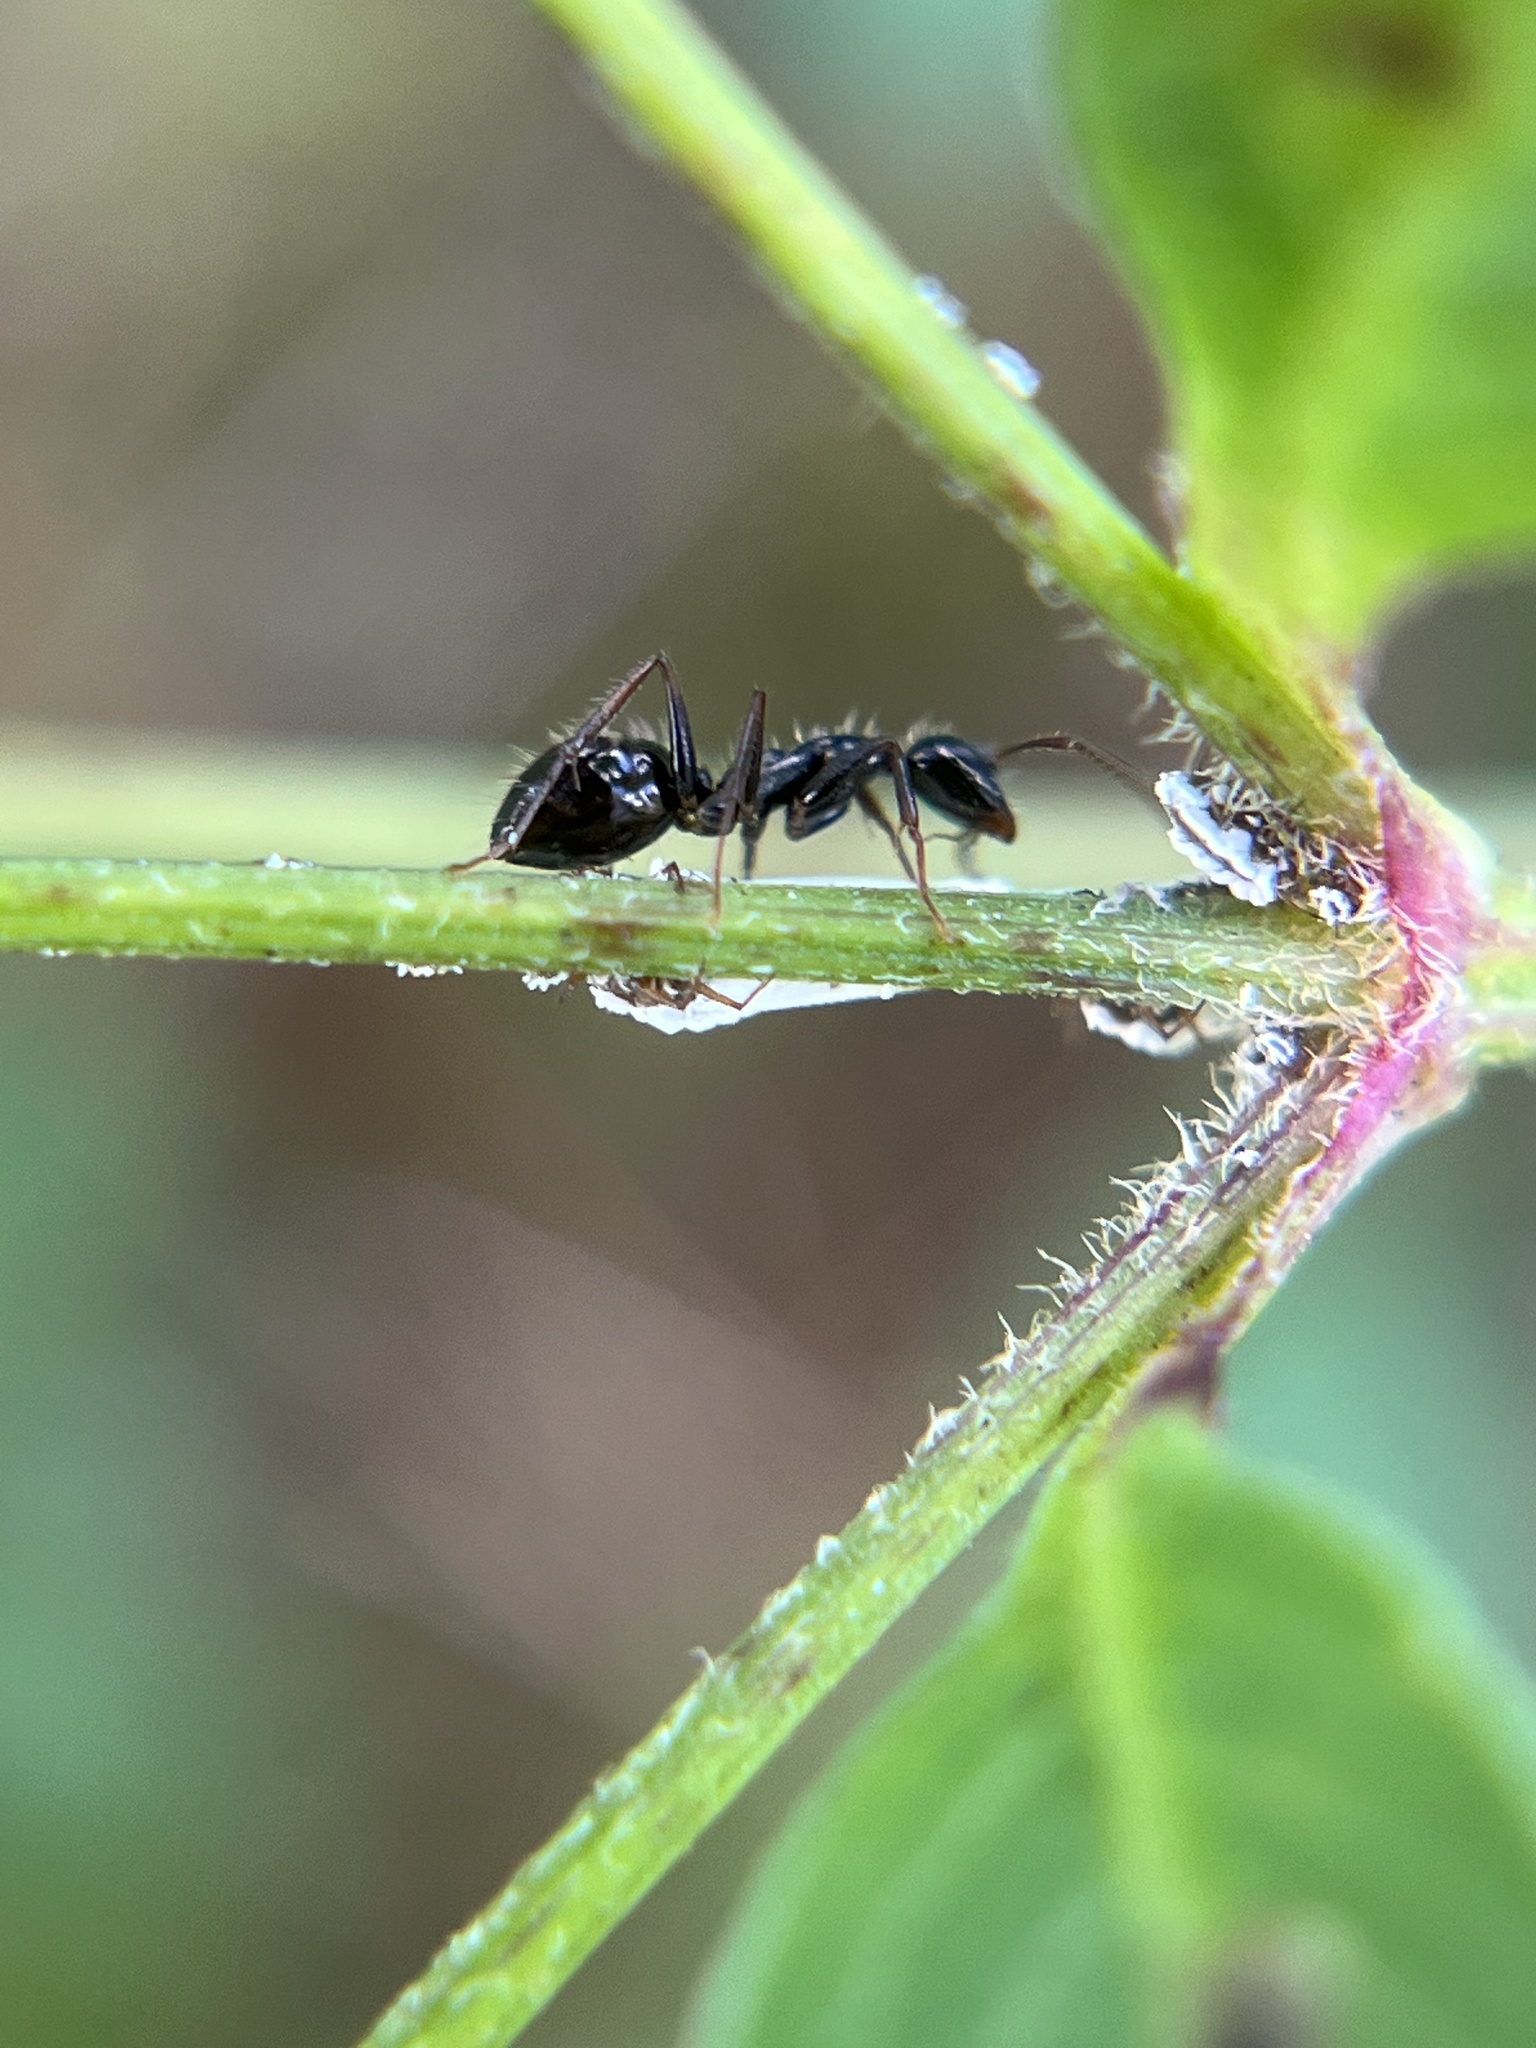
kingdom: Animalia
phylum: Arthropoda
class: Insecta
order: Hymenoptera
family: Formicidae
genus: Camponotus
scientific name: Camponotus sexguttatus
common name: Neotropical carpenter ant
